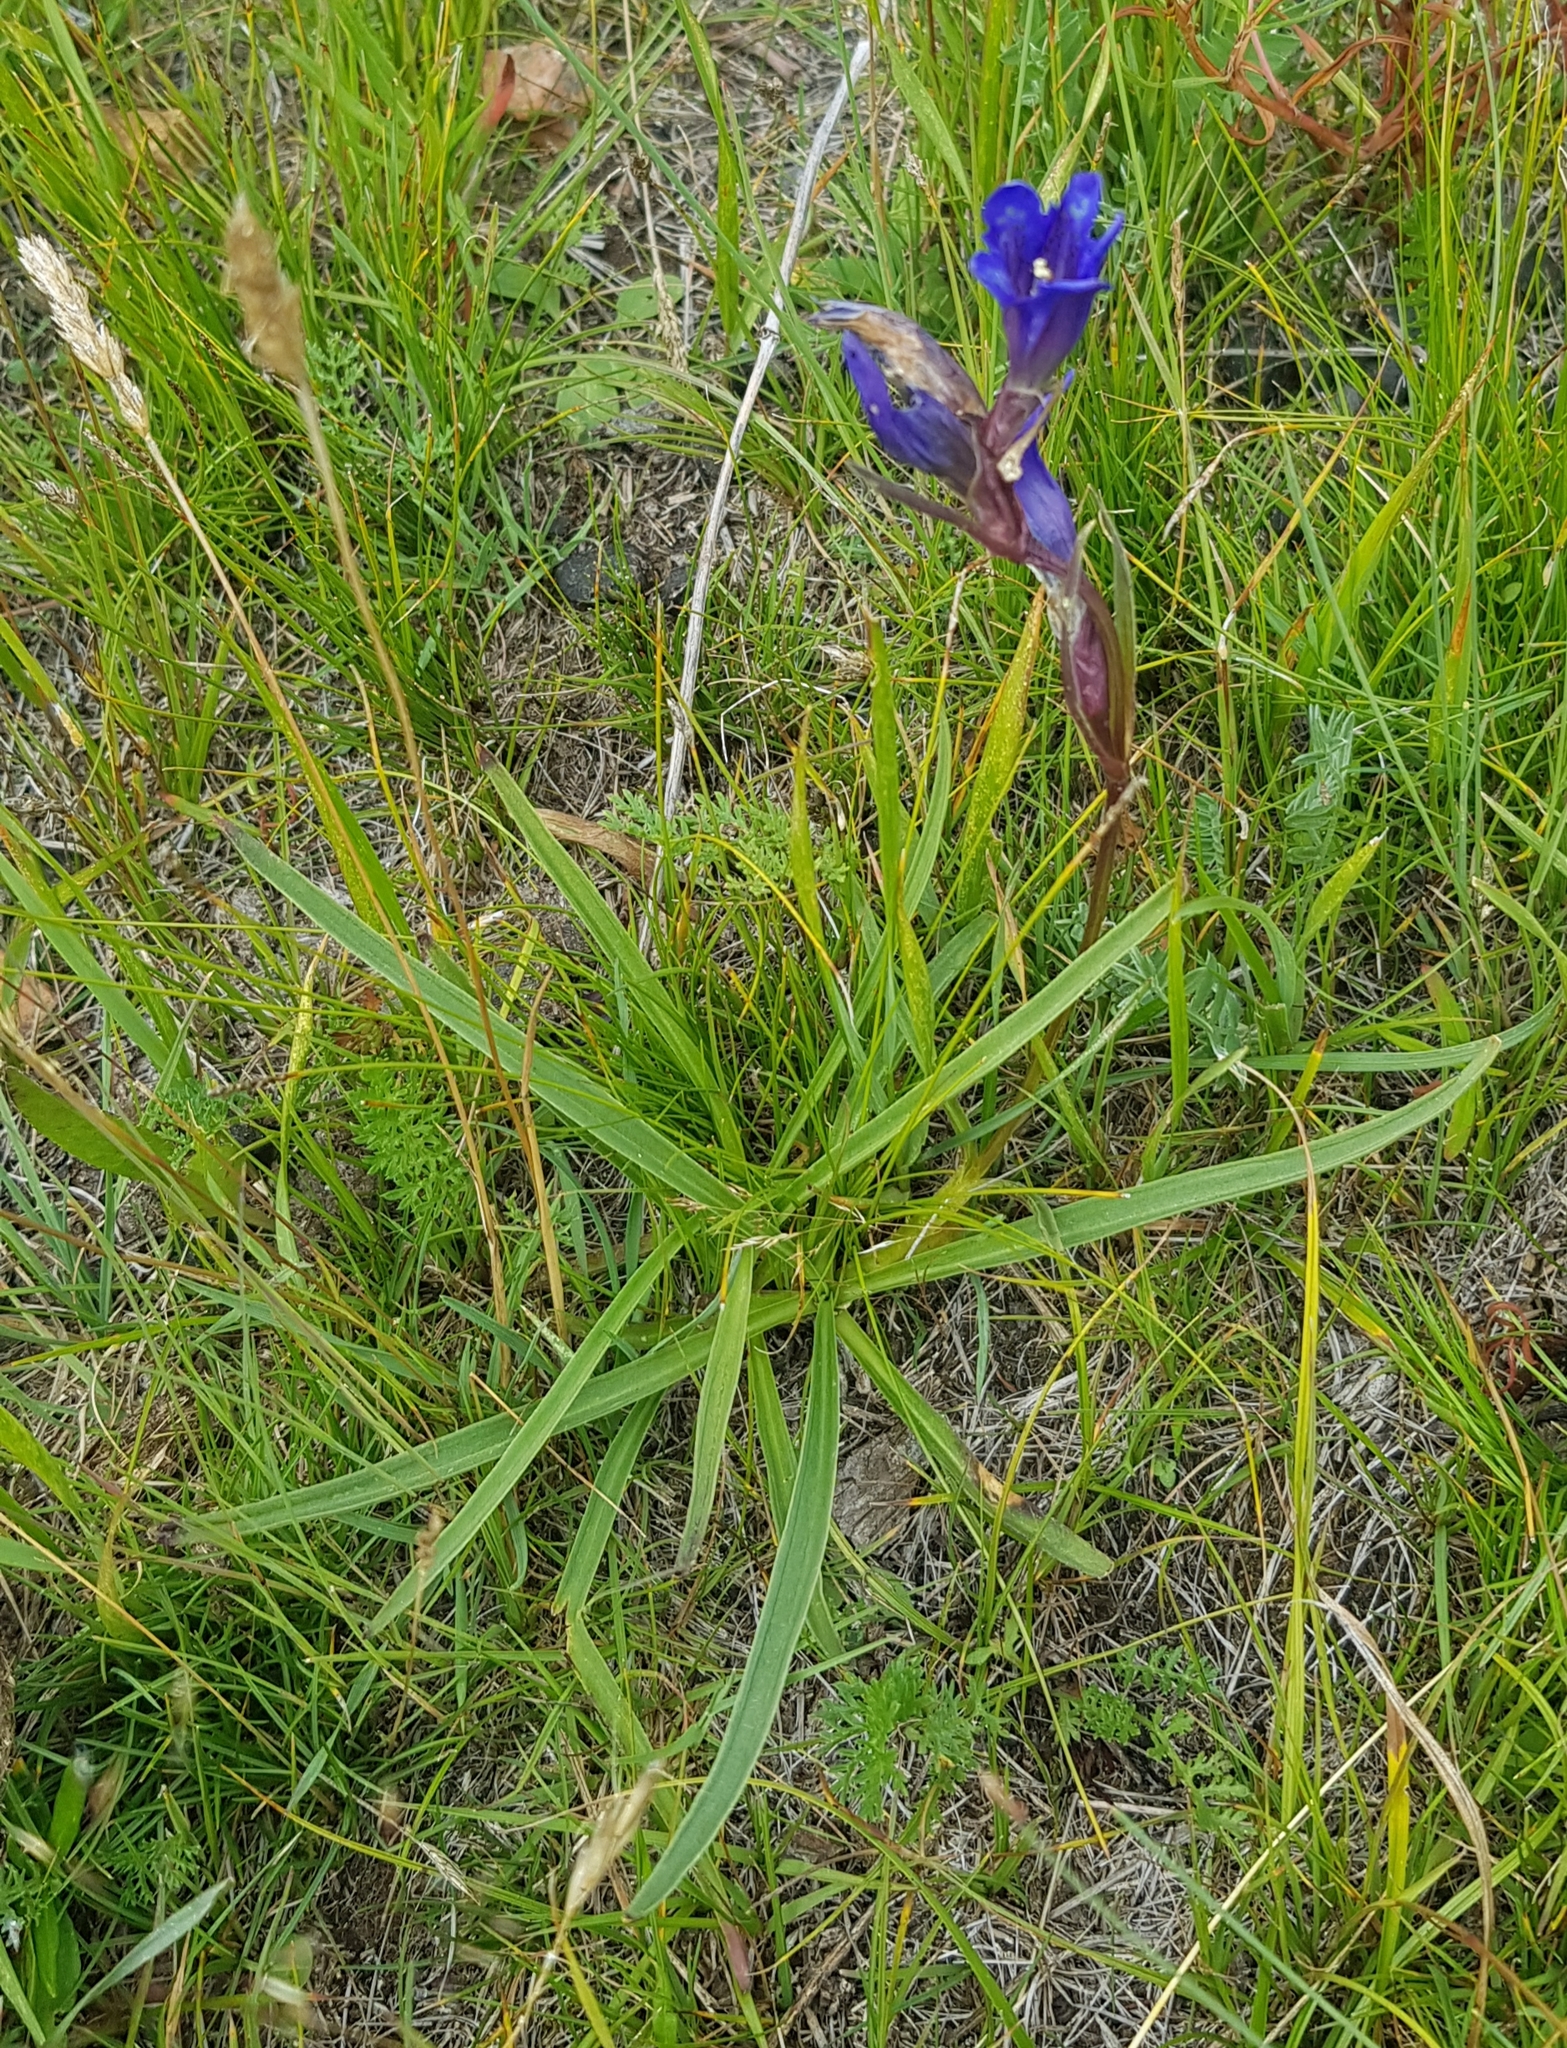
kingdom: Plantae
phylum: Tracheophyta
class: Magnoliopsida
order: Gentianales
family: Gentianaceae
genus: Gentiana
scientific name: Gentiana decumbens
